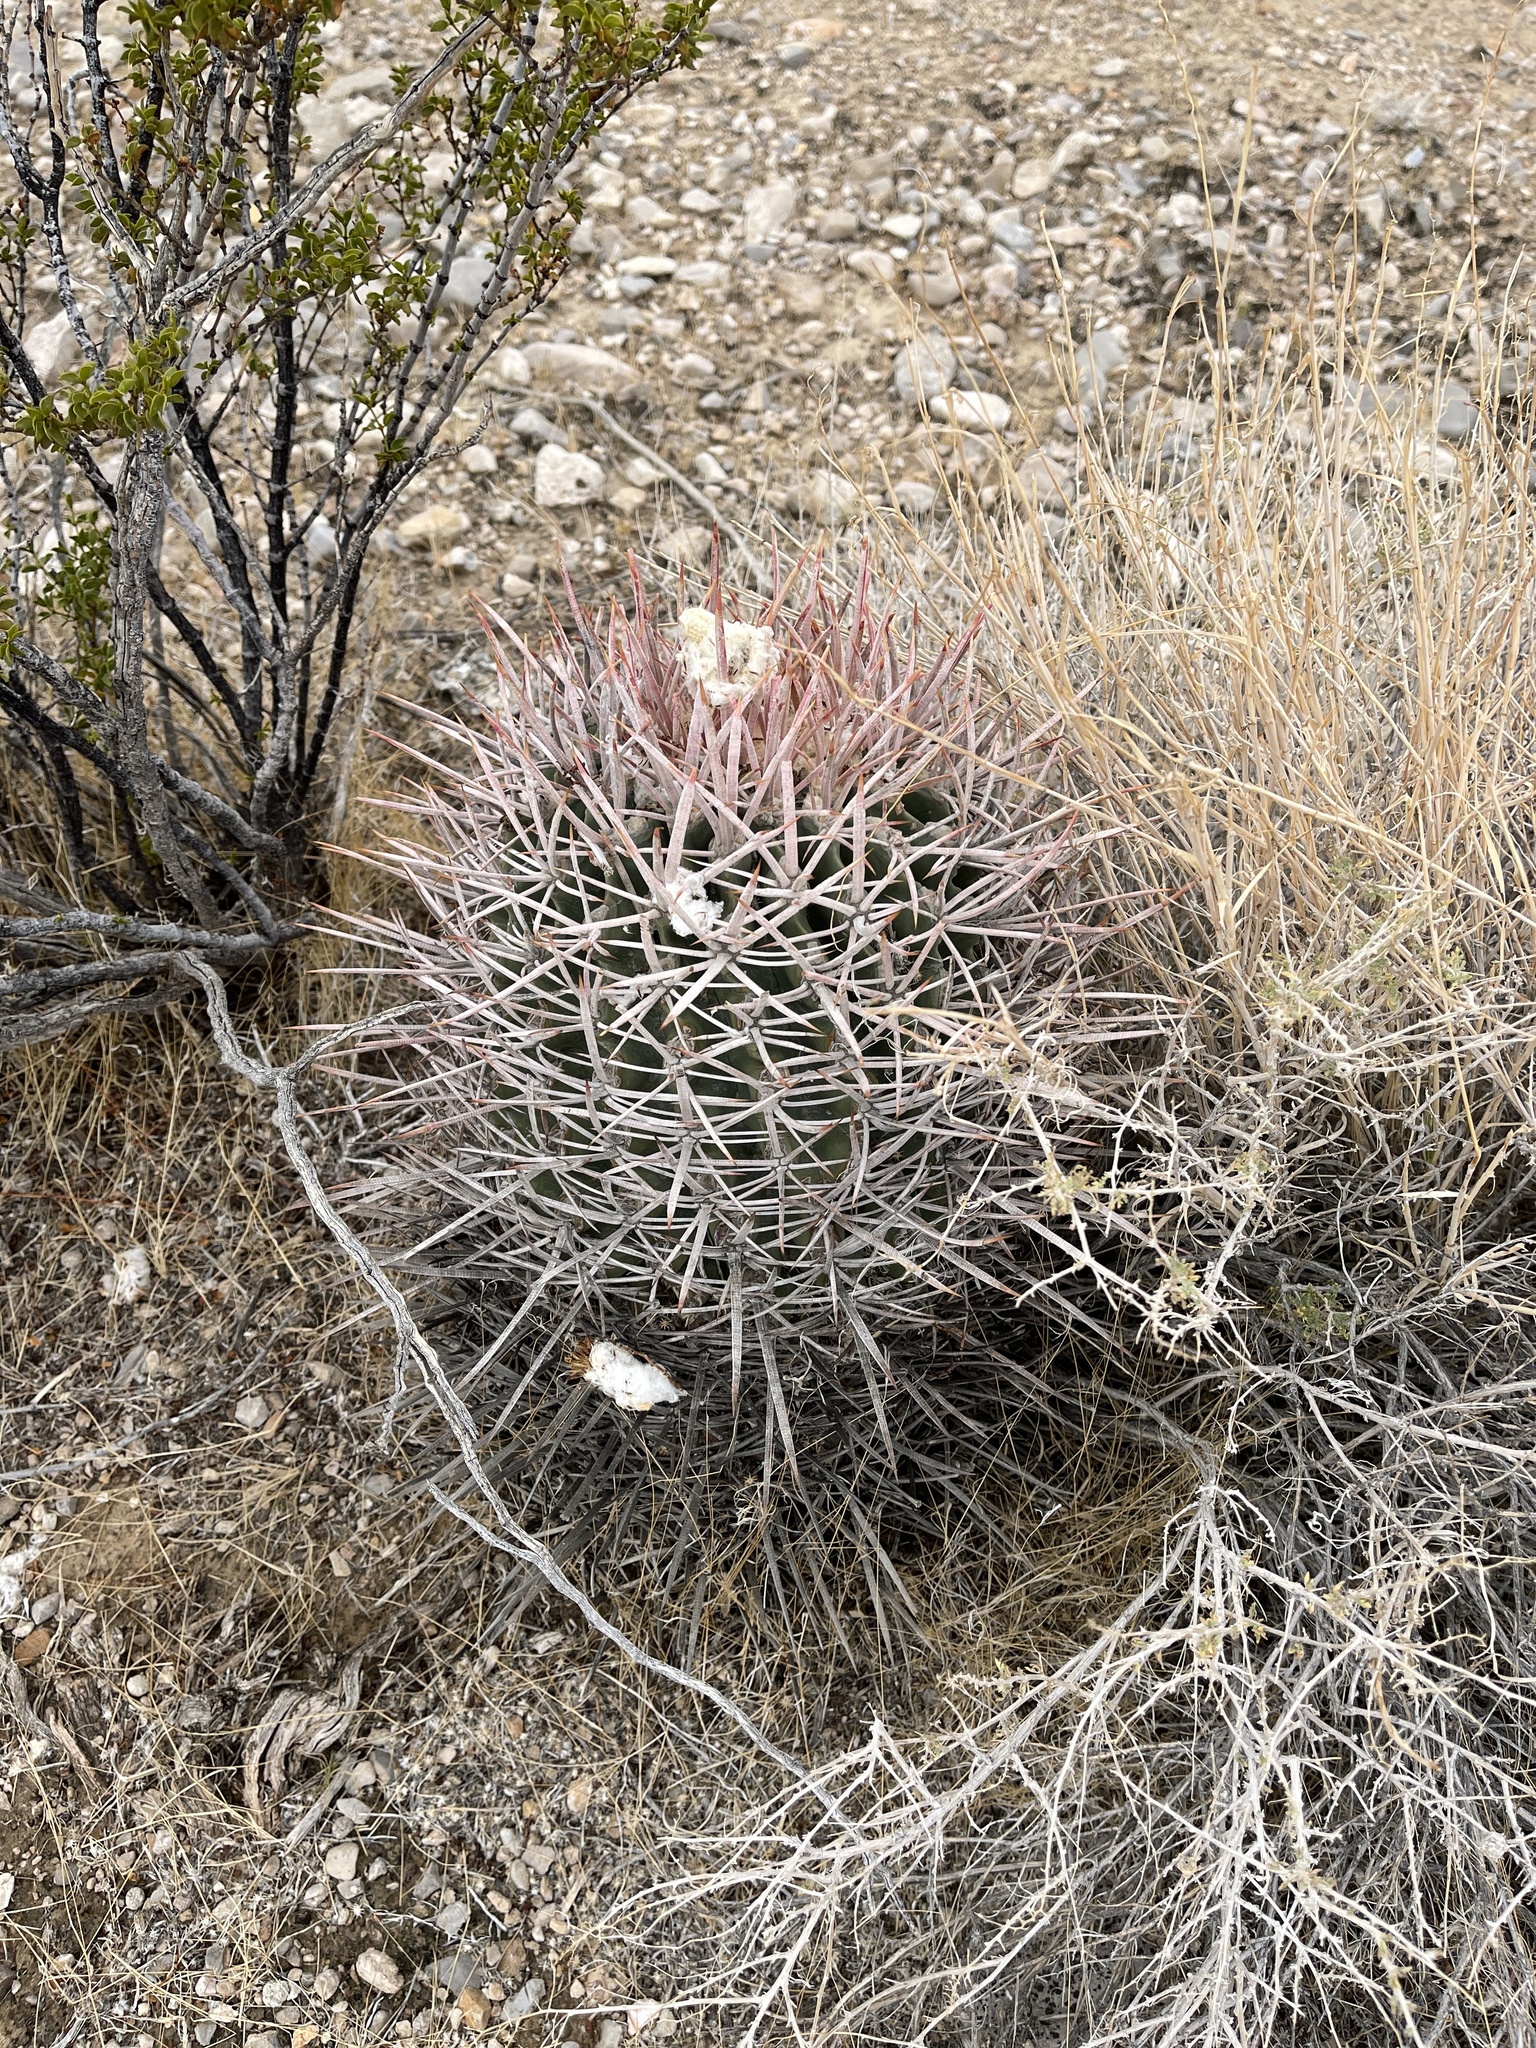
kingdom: Plantae
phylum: Tracheophyta
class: Magnoliopsida
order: Caryophyllales
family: Cactaceae
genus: Echinocactus
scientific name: Echinocactus polycephalus
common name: Cottontop cactus
